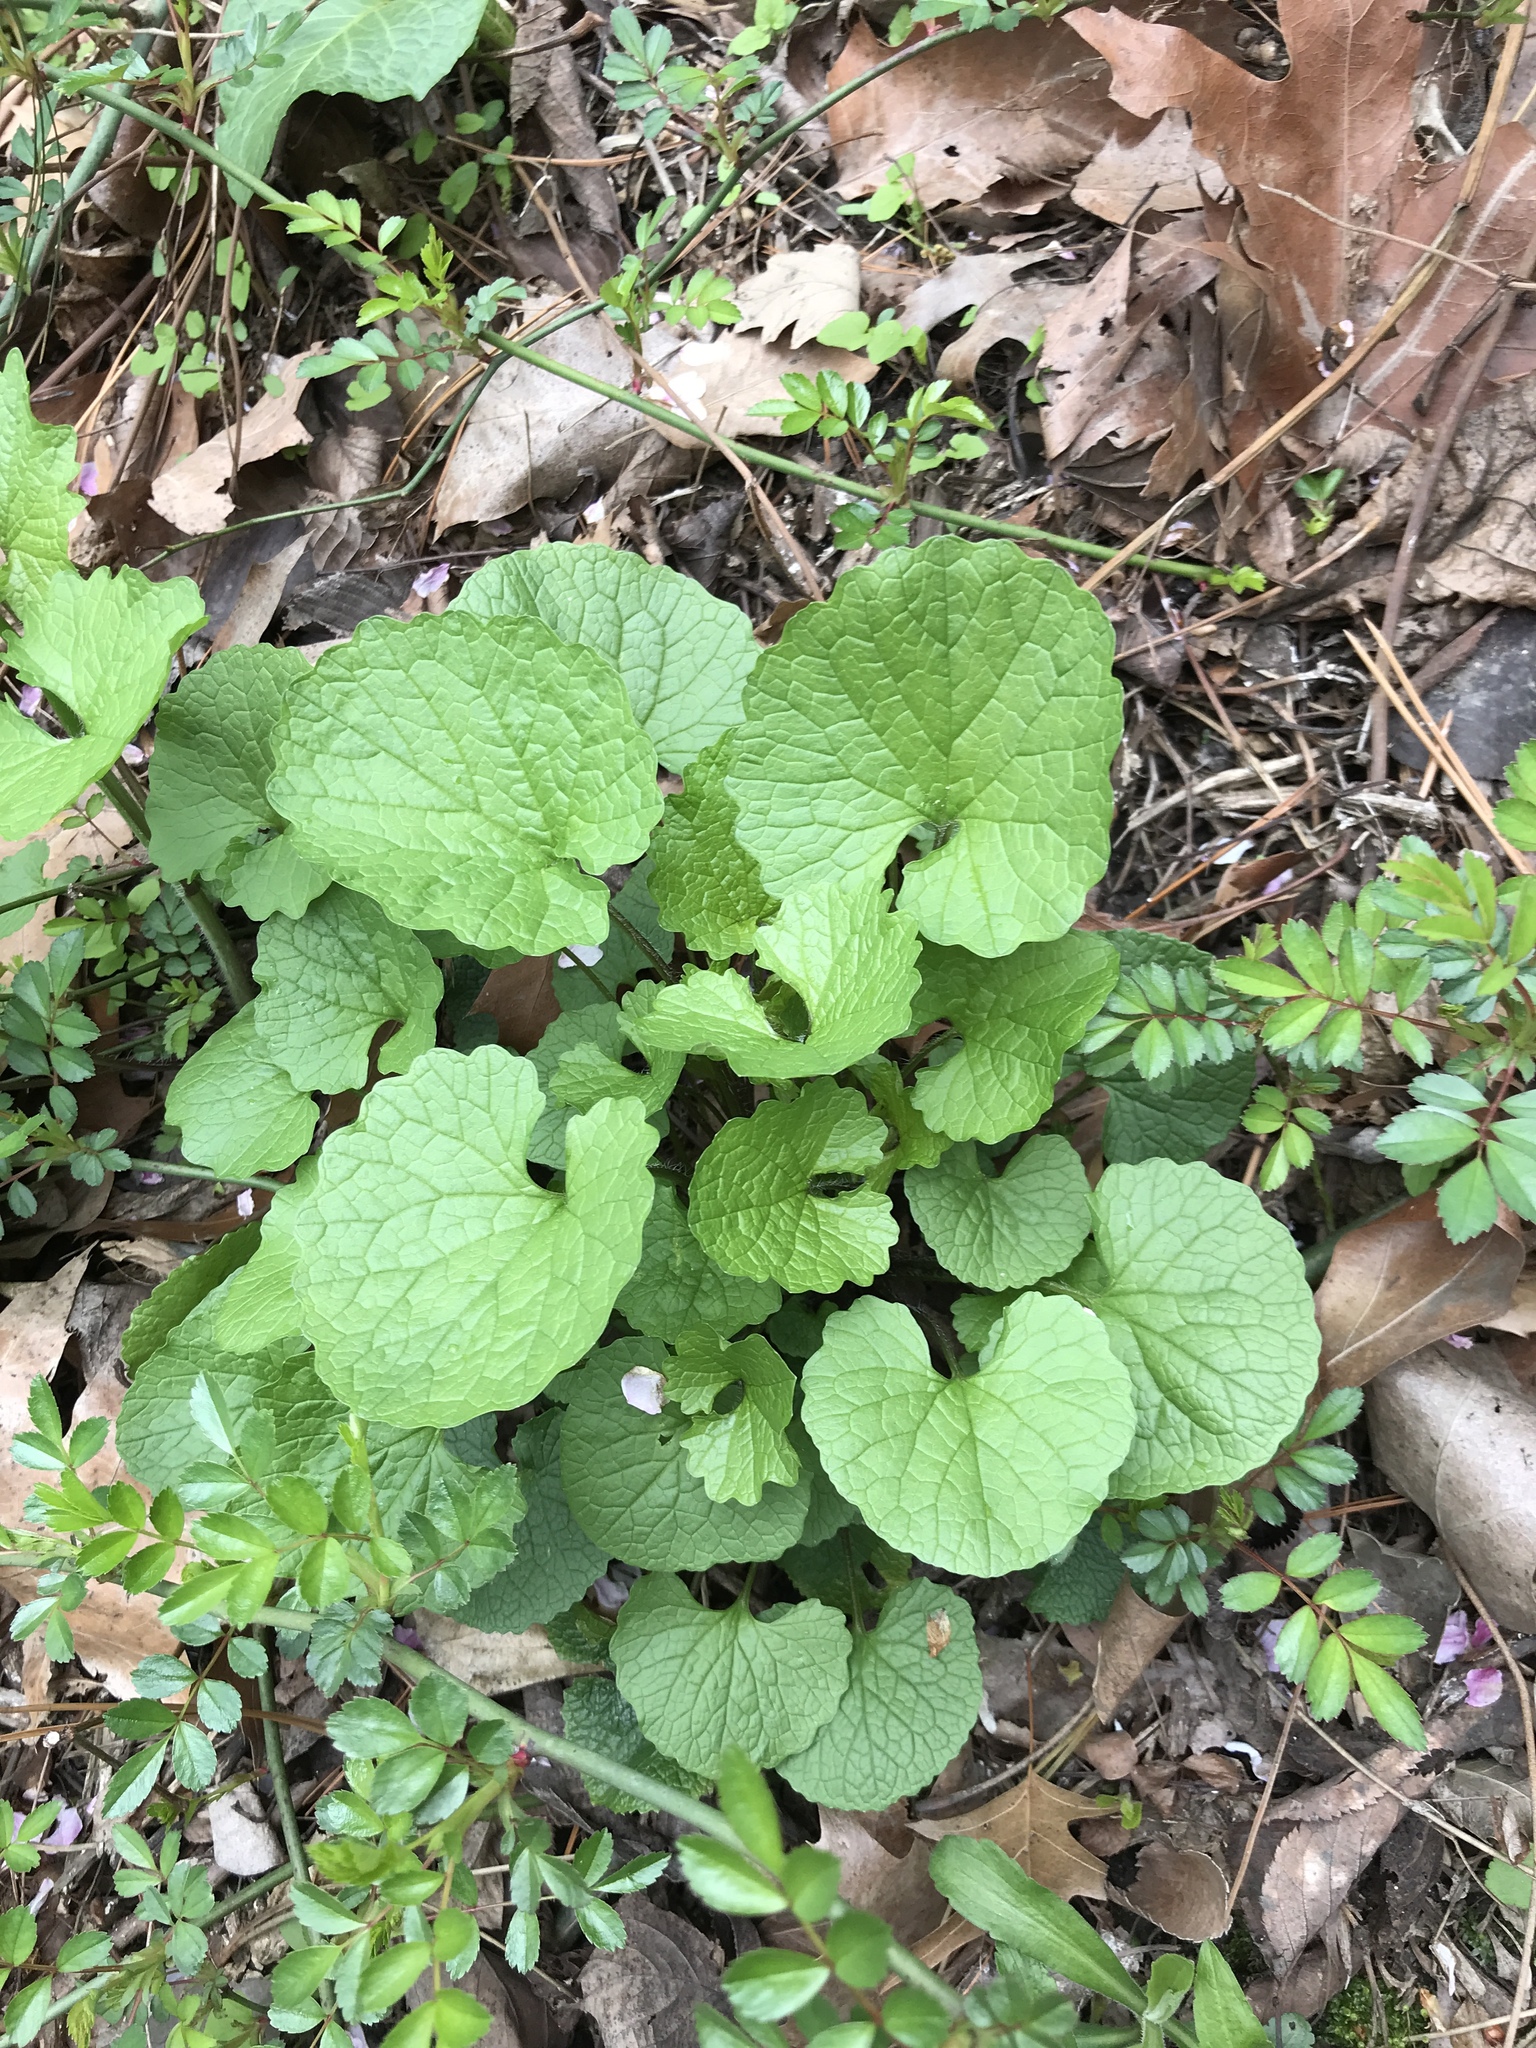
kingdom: Plantae
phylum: Tracheophyta
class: Magnoliopsida
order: Brassicales
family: Brassicaceae
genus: Alliaria
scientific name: Alliaria petiolata
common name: Garlic mustard
